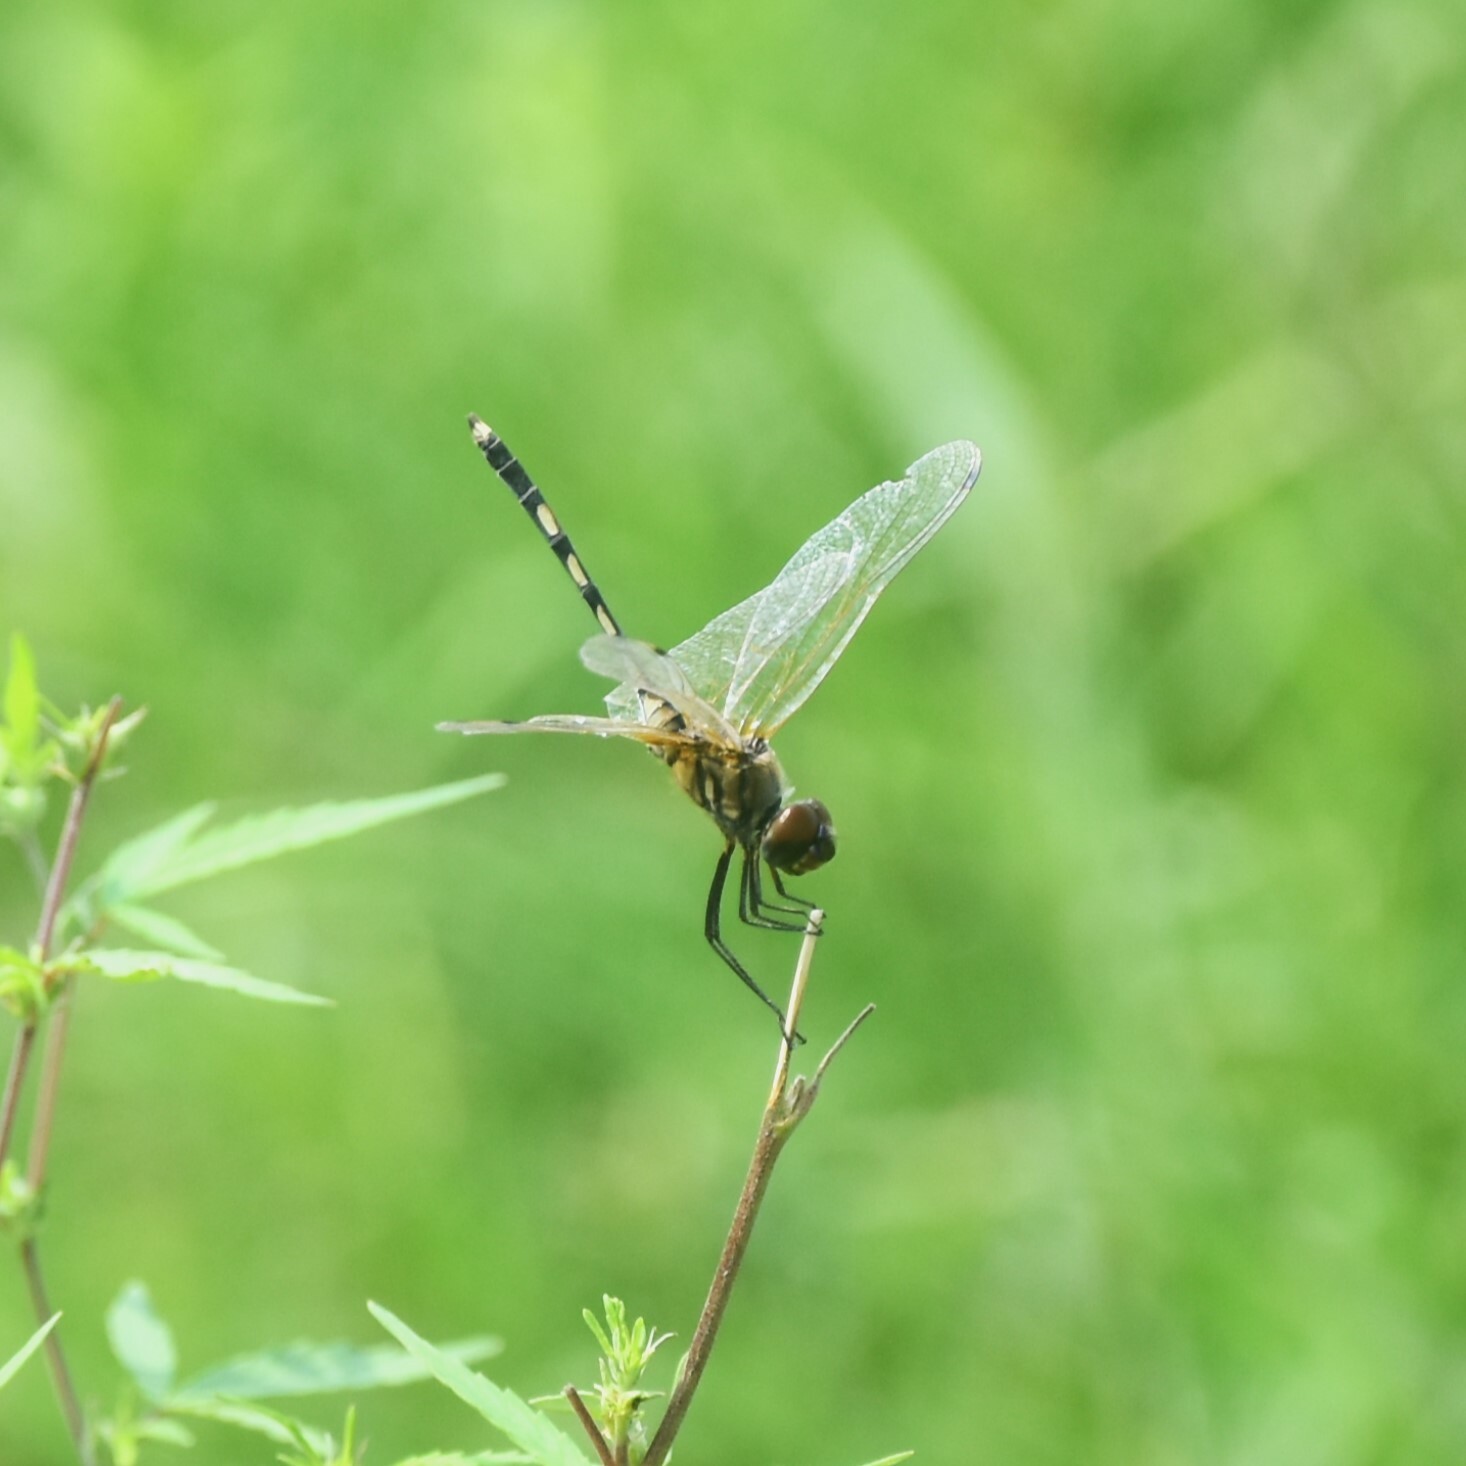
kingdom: Animalia
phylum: Arthropoda
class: Insecta
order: Odonata
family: Libellulidae
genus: Trithemis
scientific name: Trithemis pallidinervis
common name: Dancing dropwing
